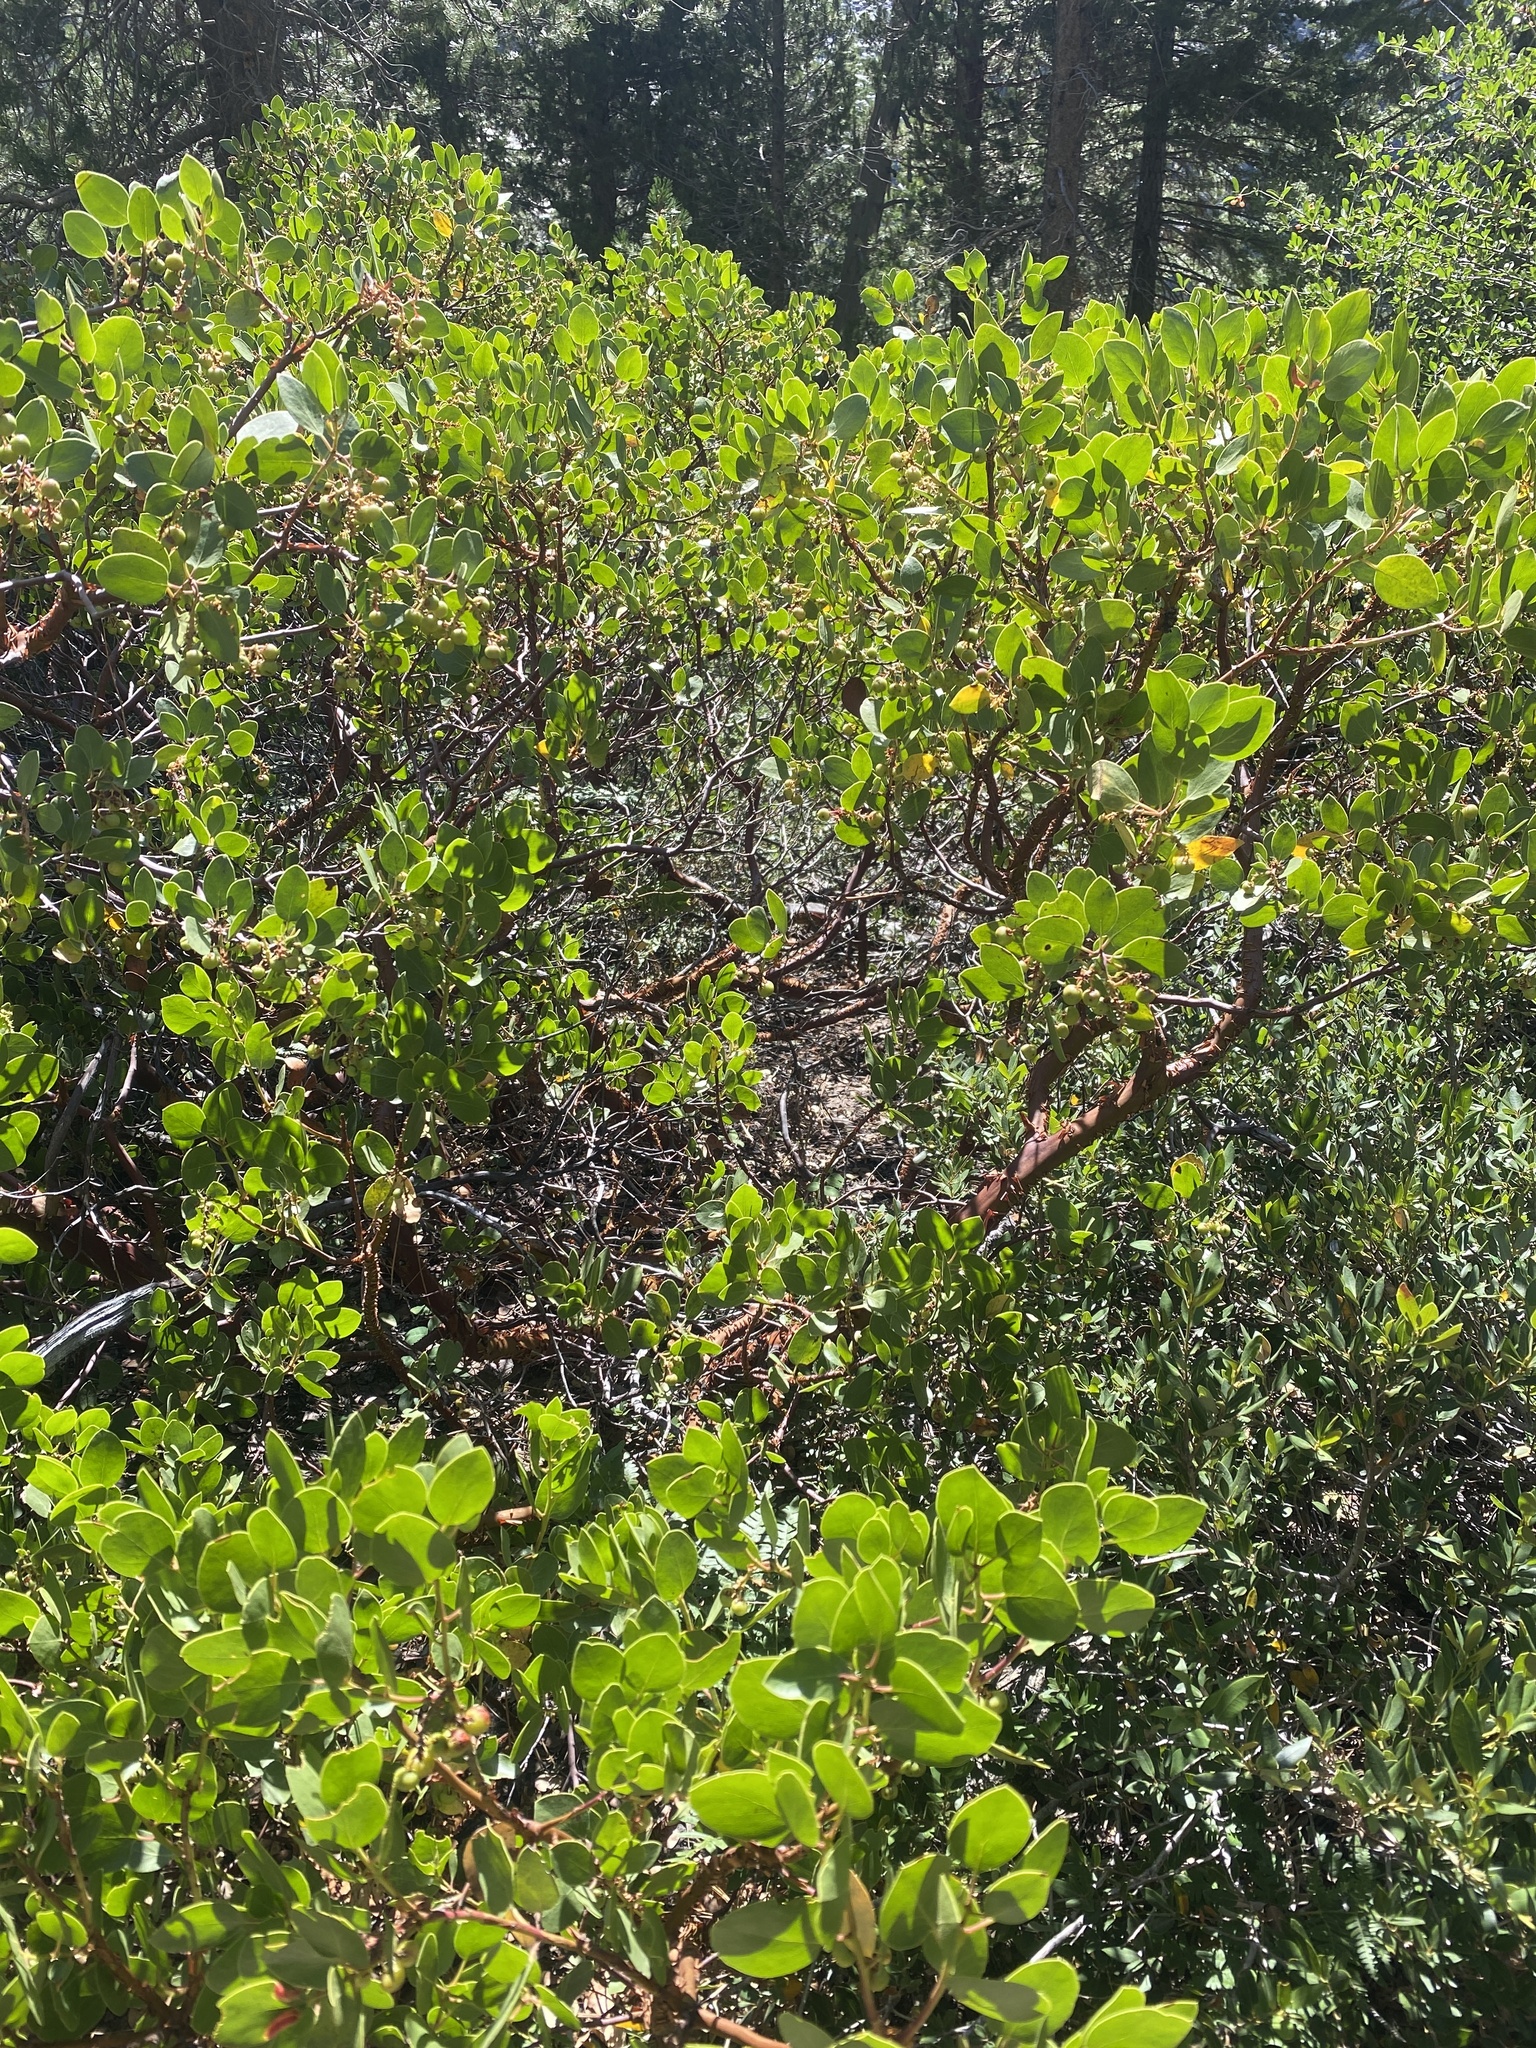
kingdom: Plantae
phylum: Tracheophyta
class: Magnoliopsida
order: Ericales
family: Ericaceae
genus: Arctostaphylos
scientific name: Arctostaphylos patula
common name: Green-leaf manzanita
